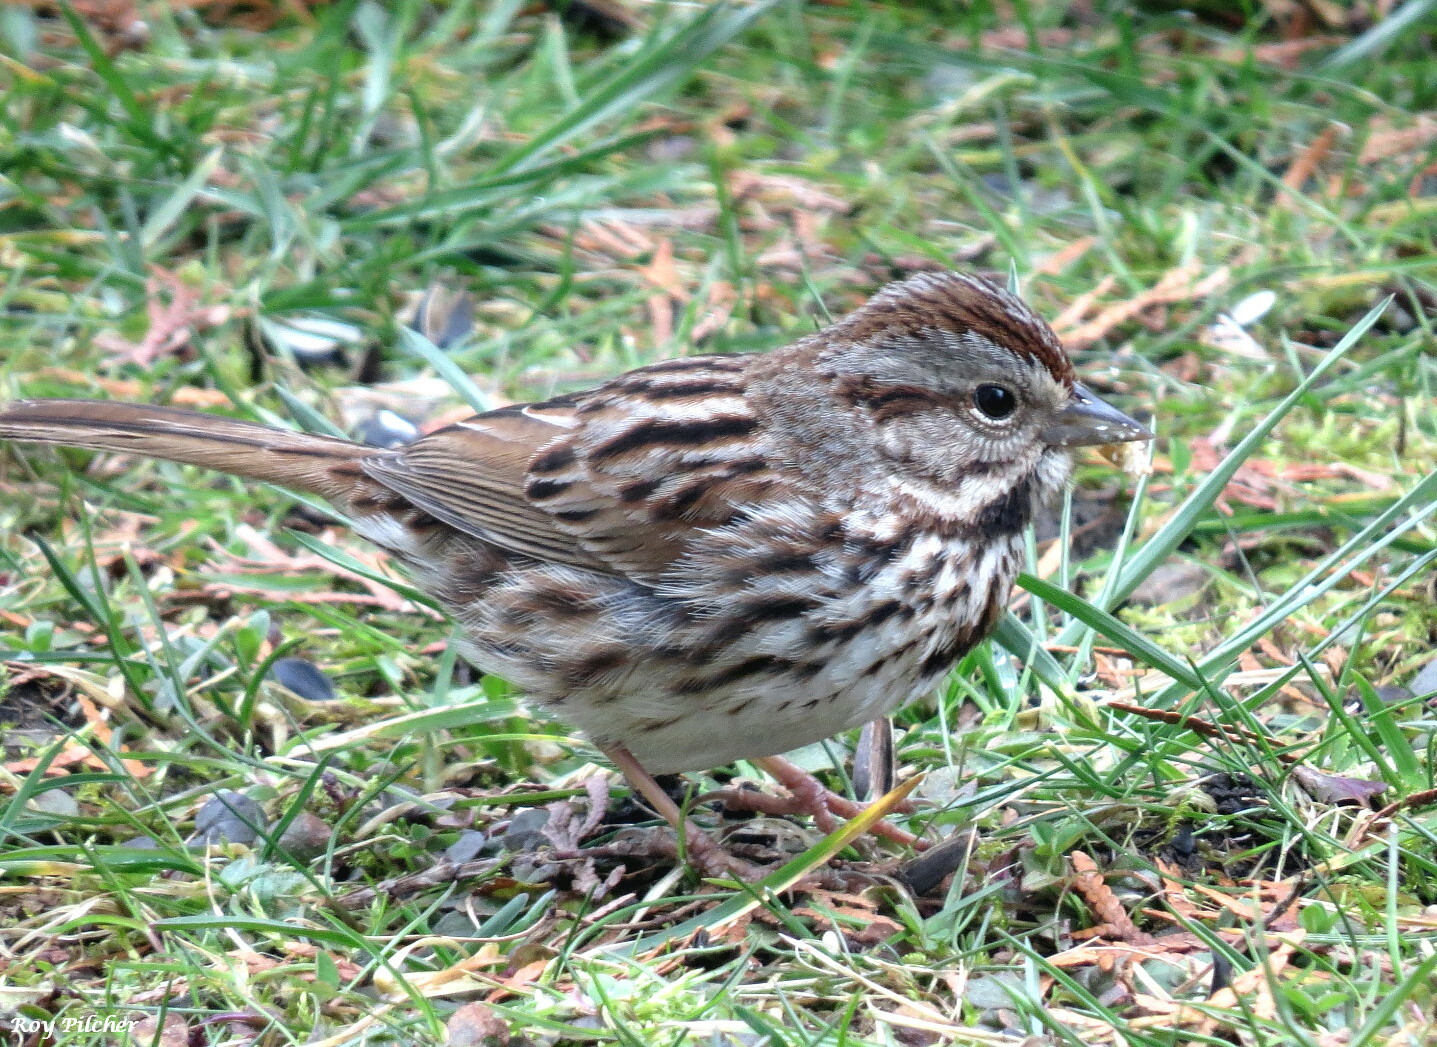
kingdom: Animalia
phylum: Chordata
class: Aves
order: Passeriformes
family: Passerellidae
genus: Melospiza
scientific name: Melospiza melodia
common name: Song sparrow
